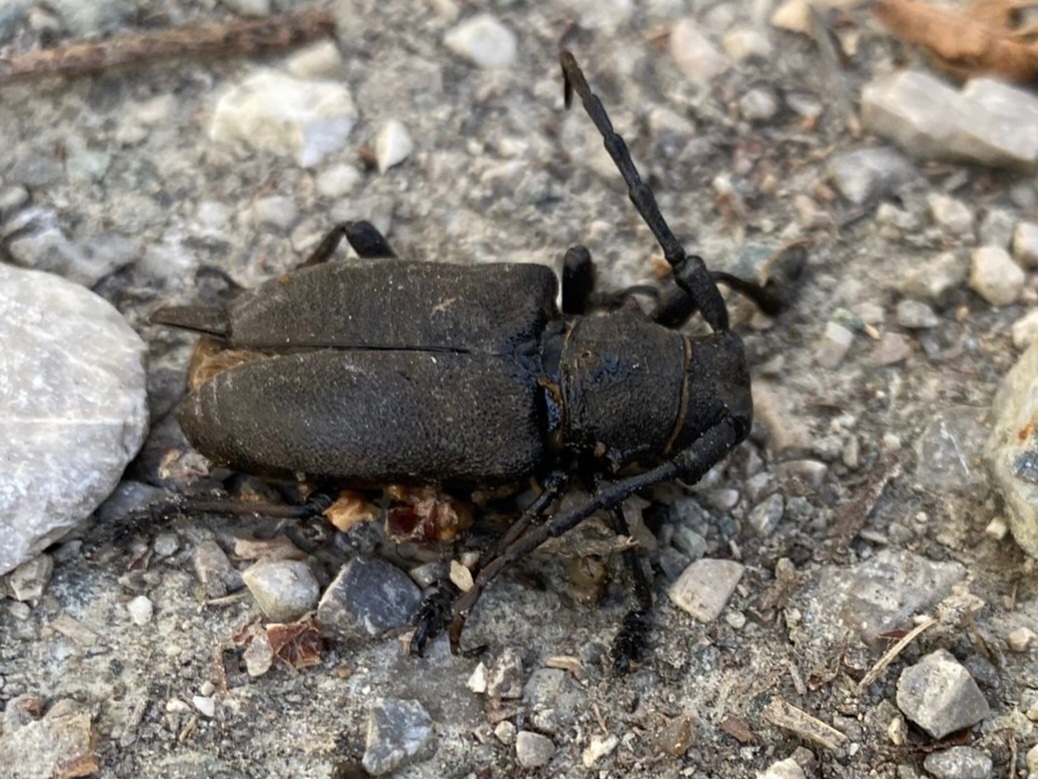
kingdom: Animalia
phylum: Arthropoda
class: Insecta
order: Coleoptera
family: Cerambycidae
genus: Lamia
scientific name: Lamia textor
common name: Weaver beetle
